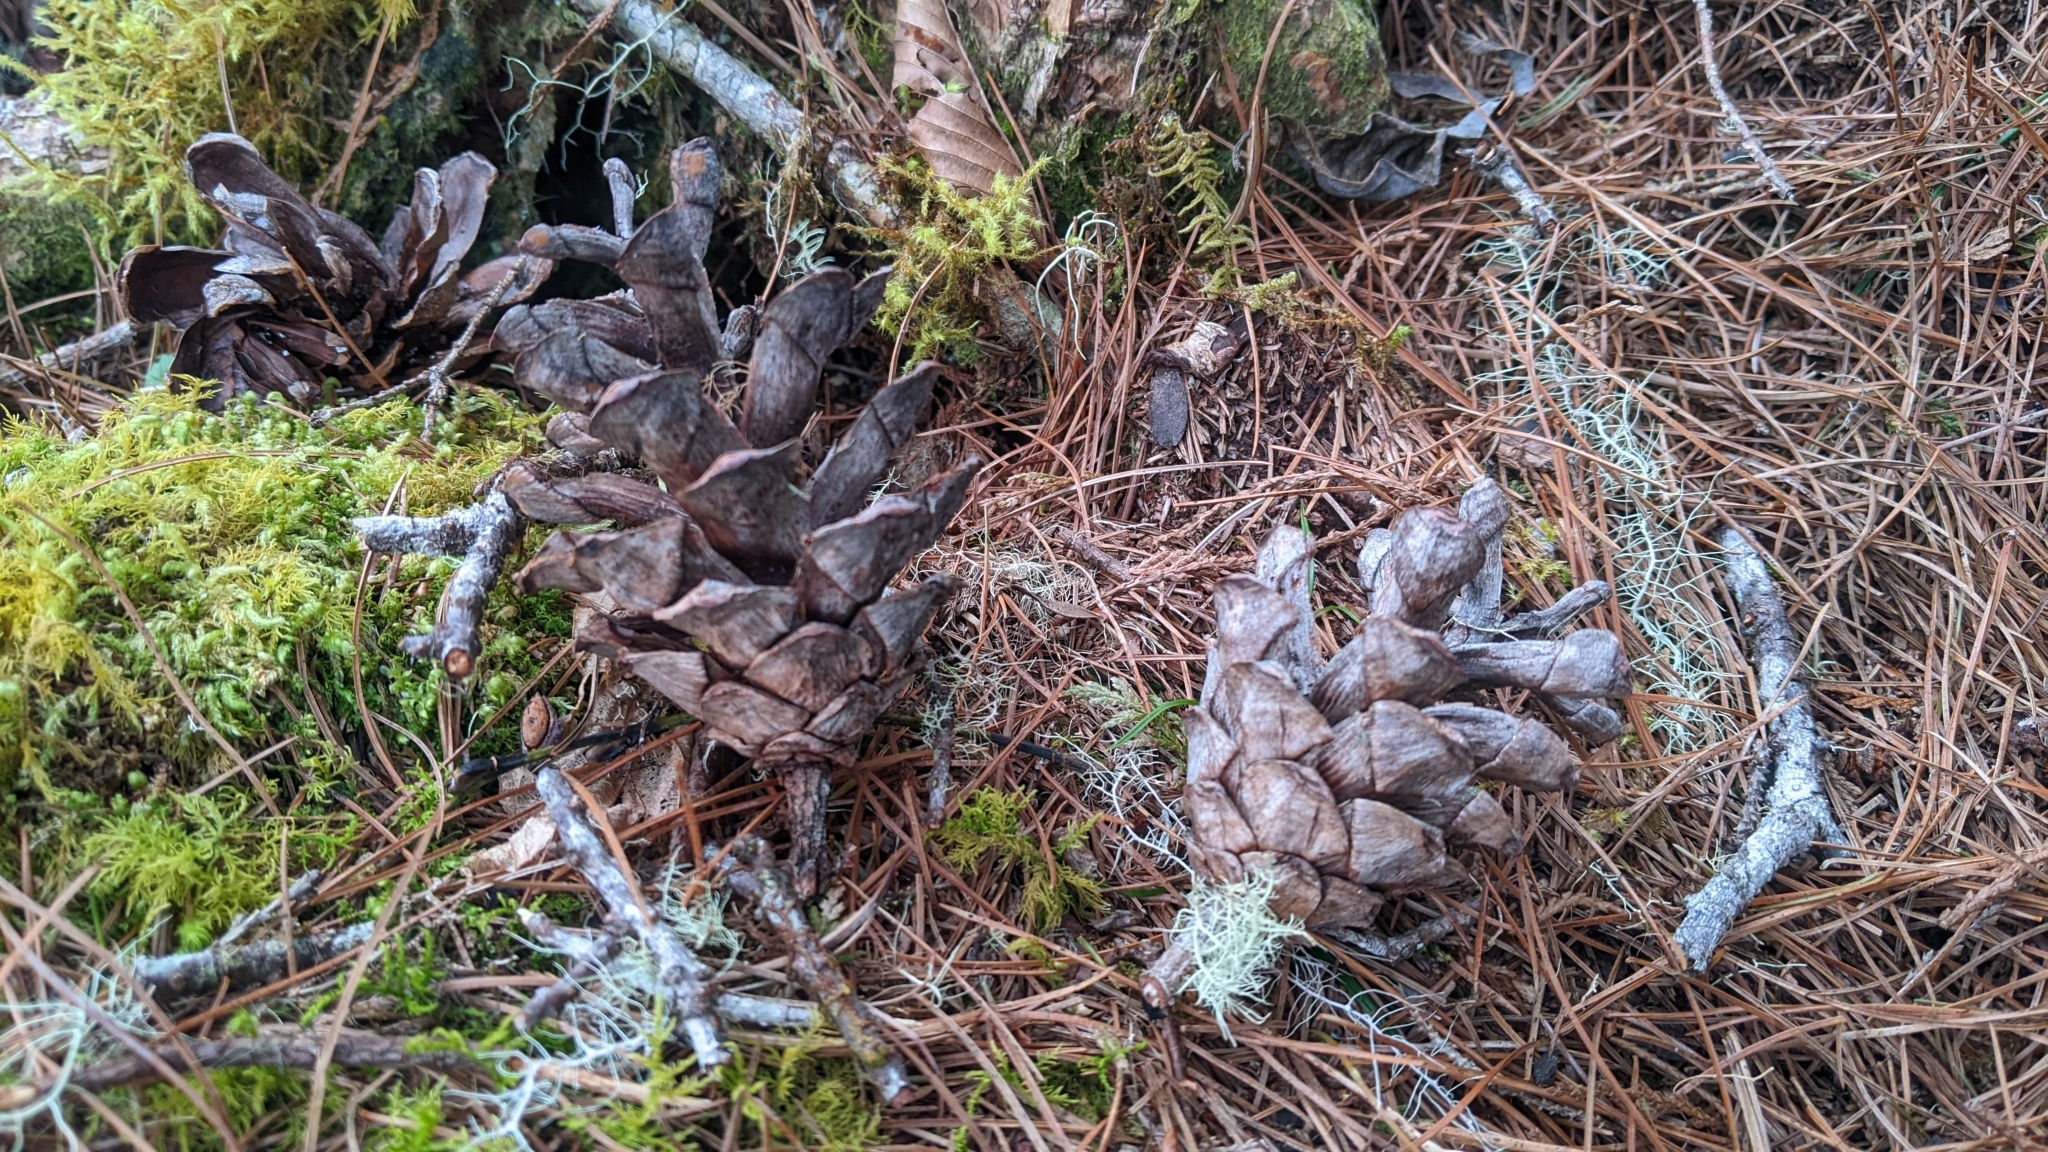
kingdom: Plantae
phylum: Tracheophyta
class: Pinopsida
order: Pinales
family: Pinaceae
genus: Pinus
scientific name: Pinus morrisonicola
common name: Taiwan white pine
